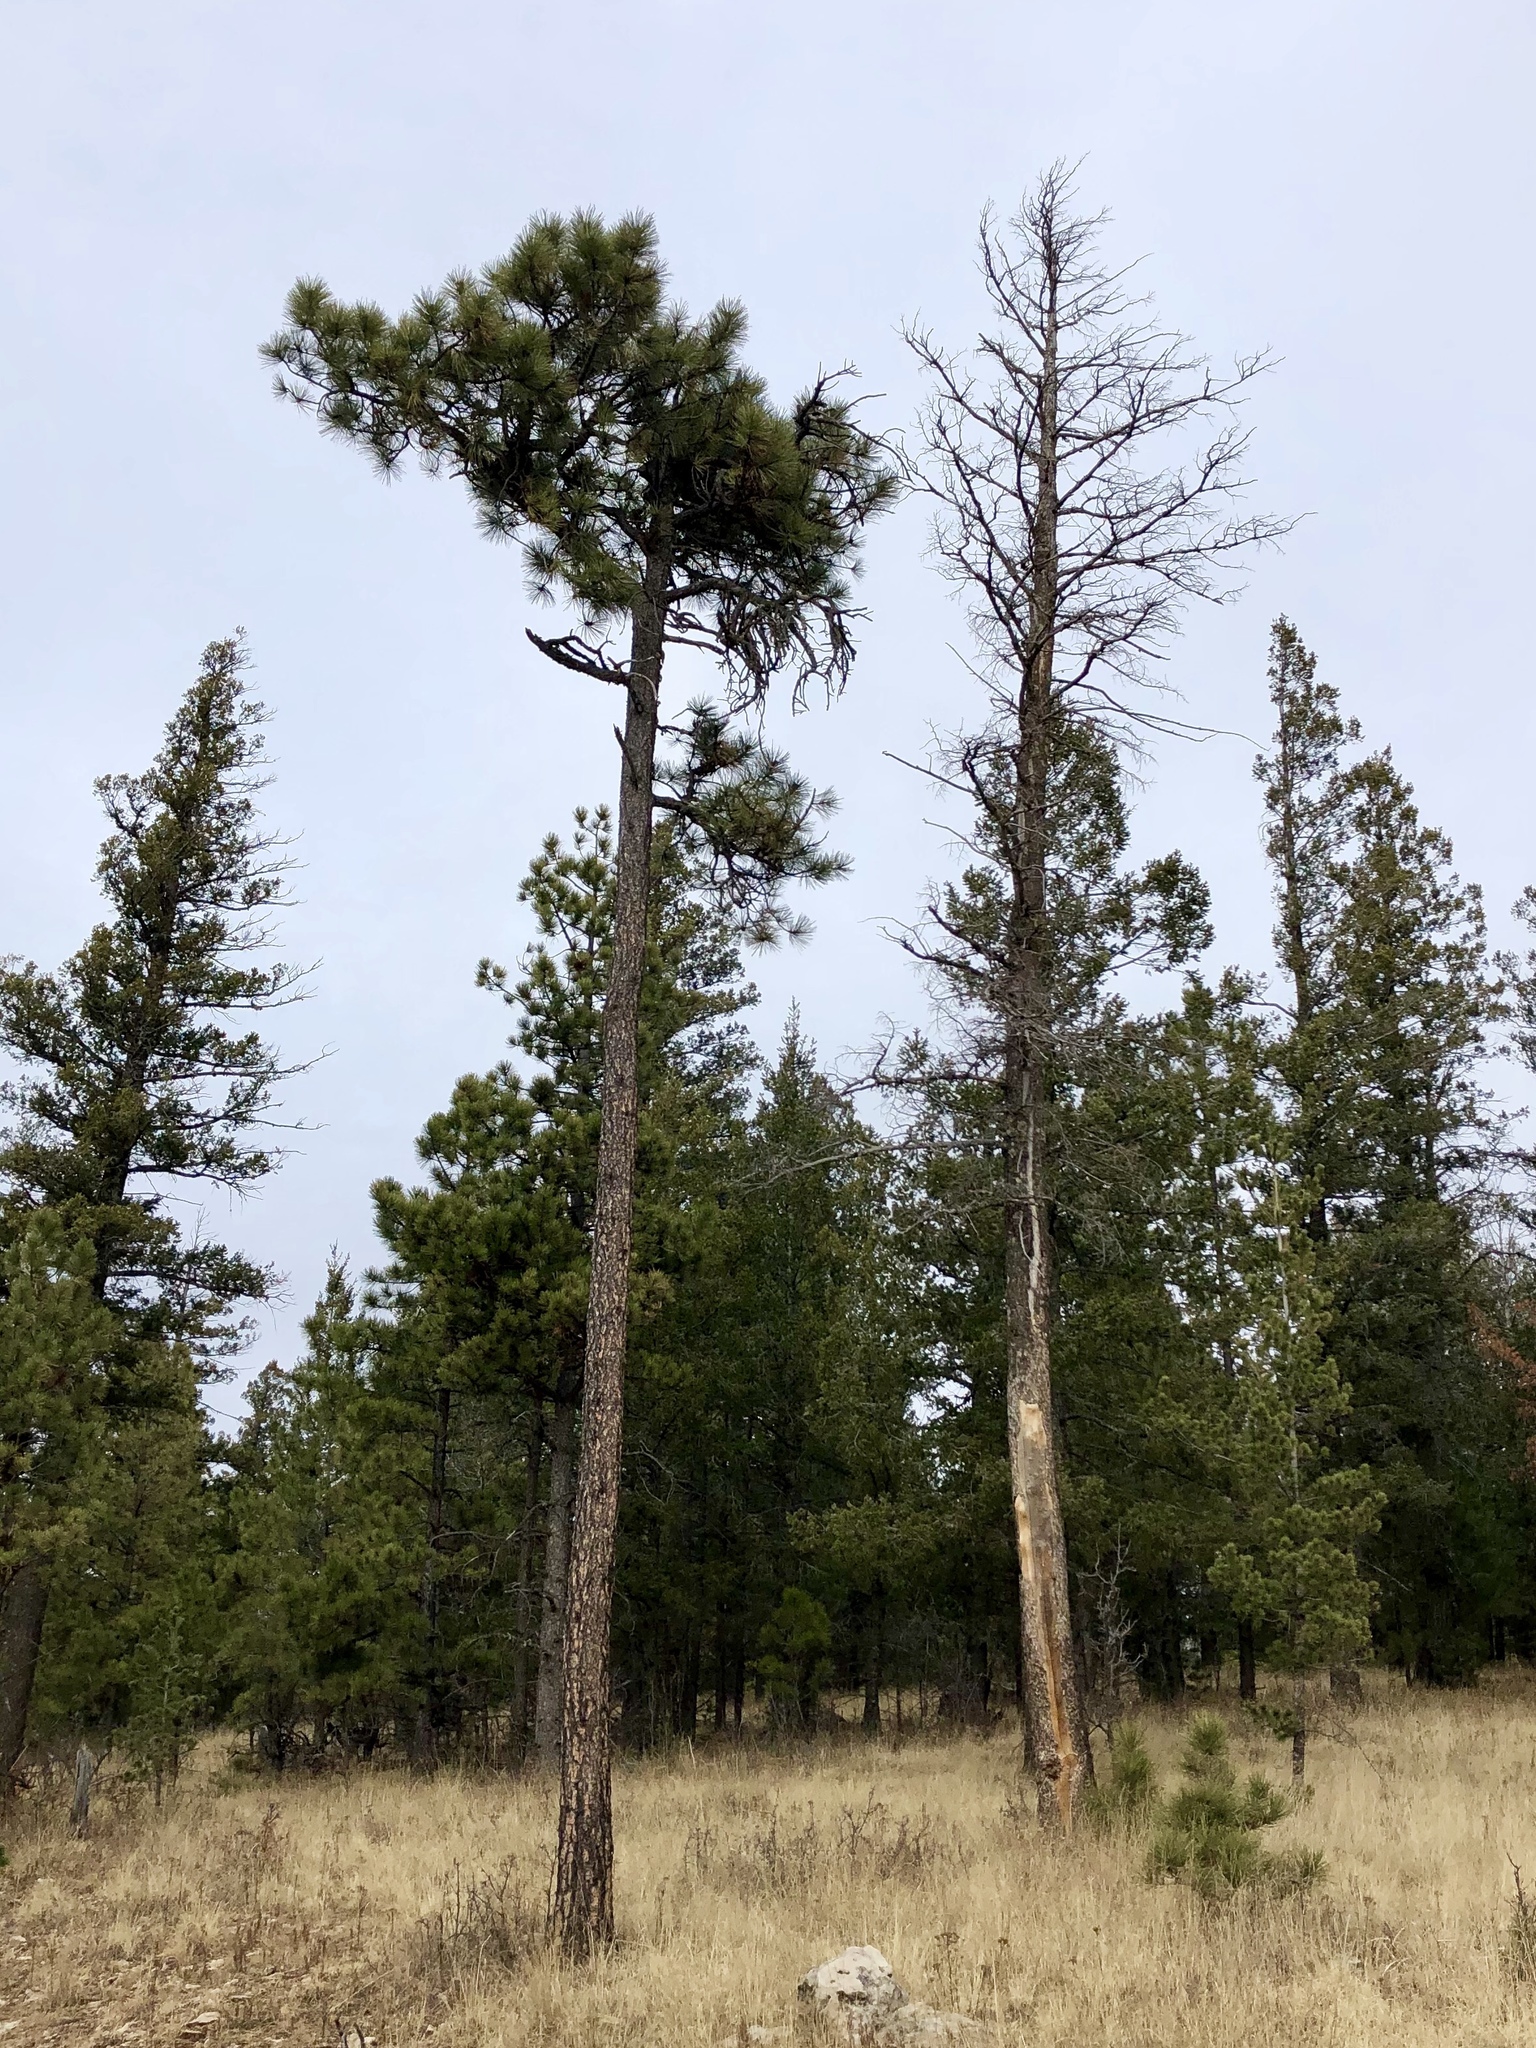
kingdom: Plantae
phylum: Tracheophyta
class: Pinopsida
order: Pinales
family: Pinaceae
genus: Pinus
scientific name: Pinus ponderosa
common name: Western yellow-pine
